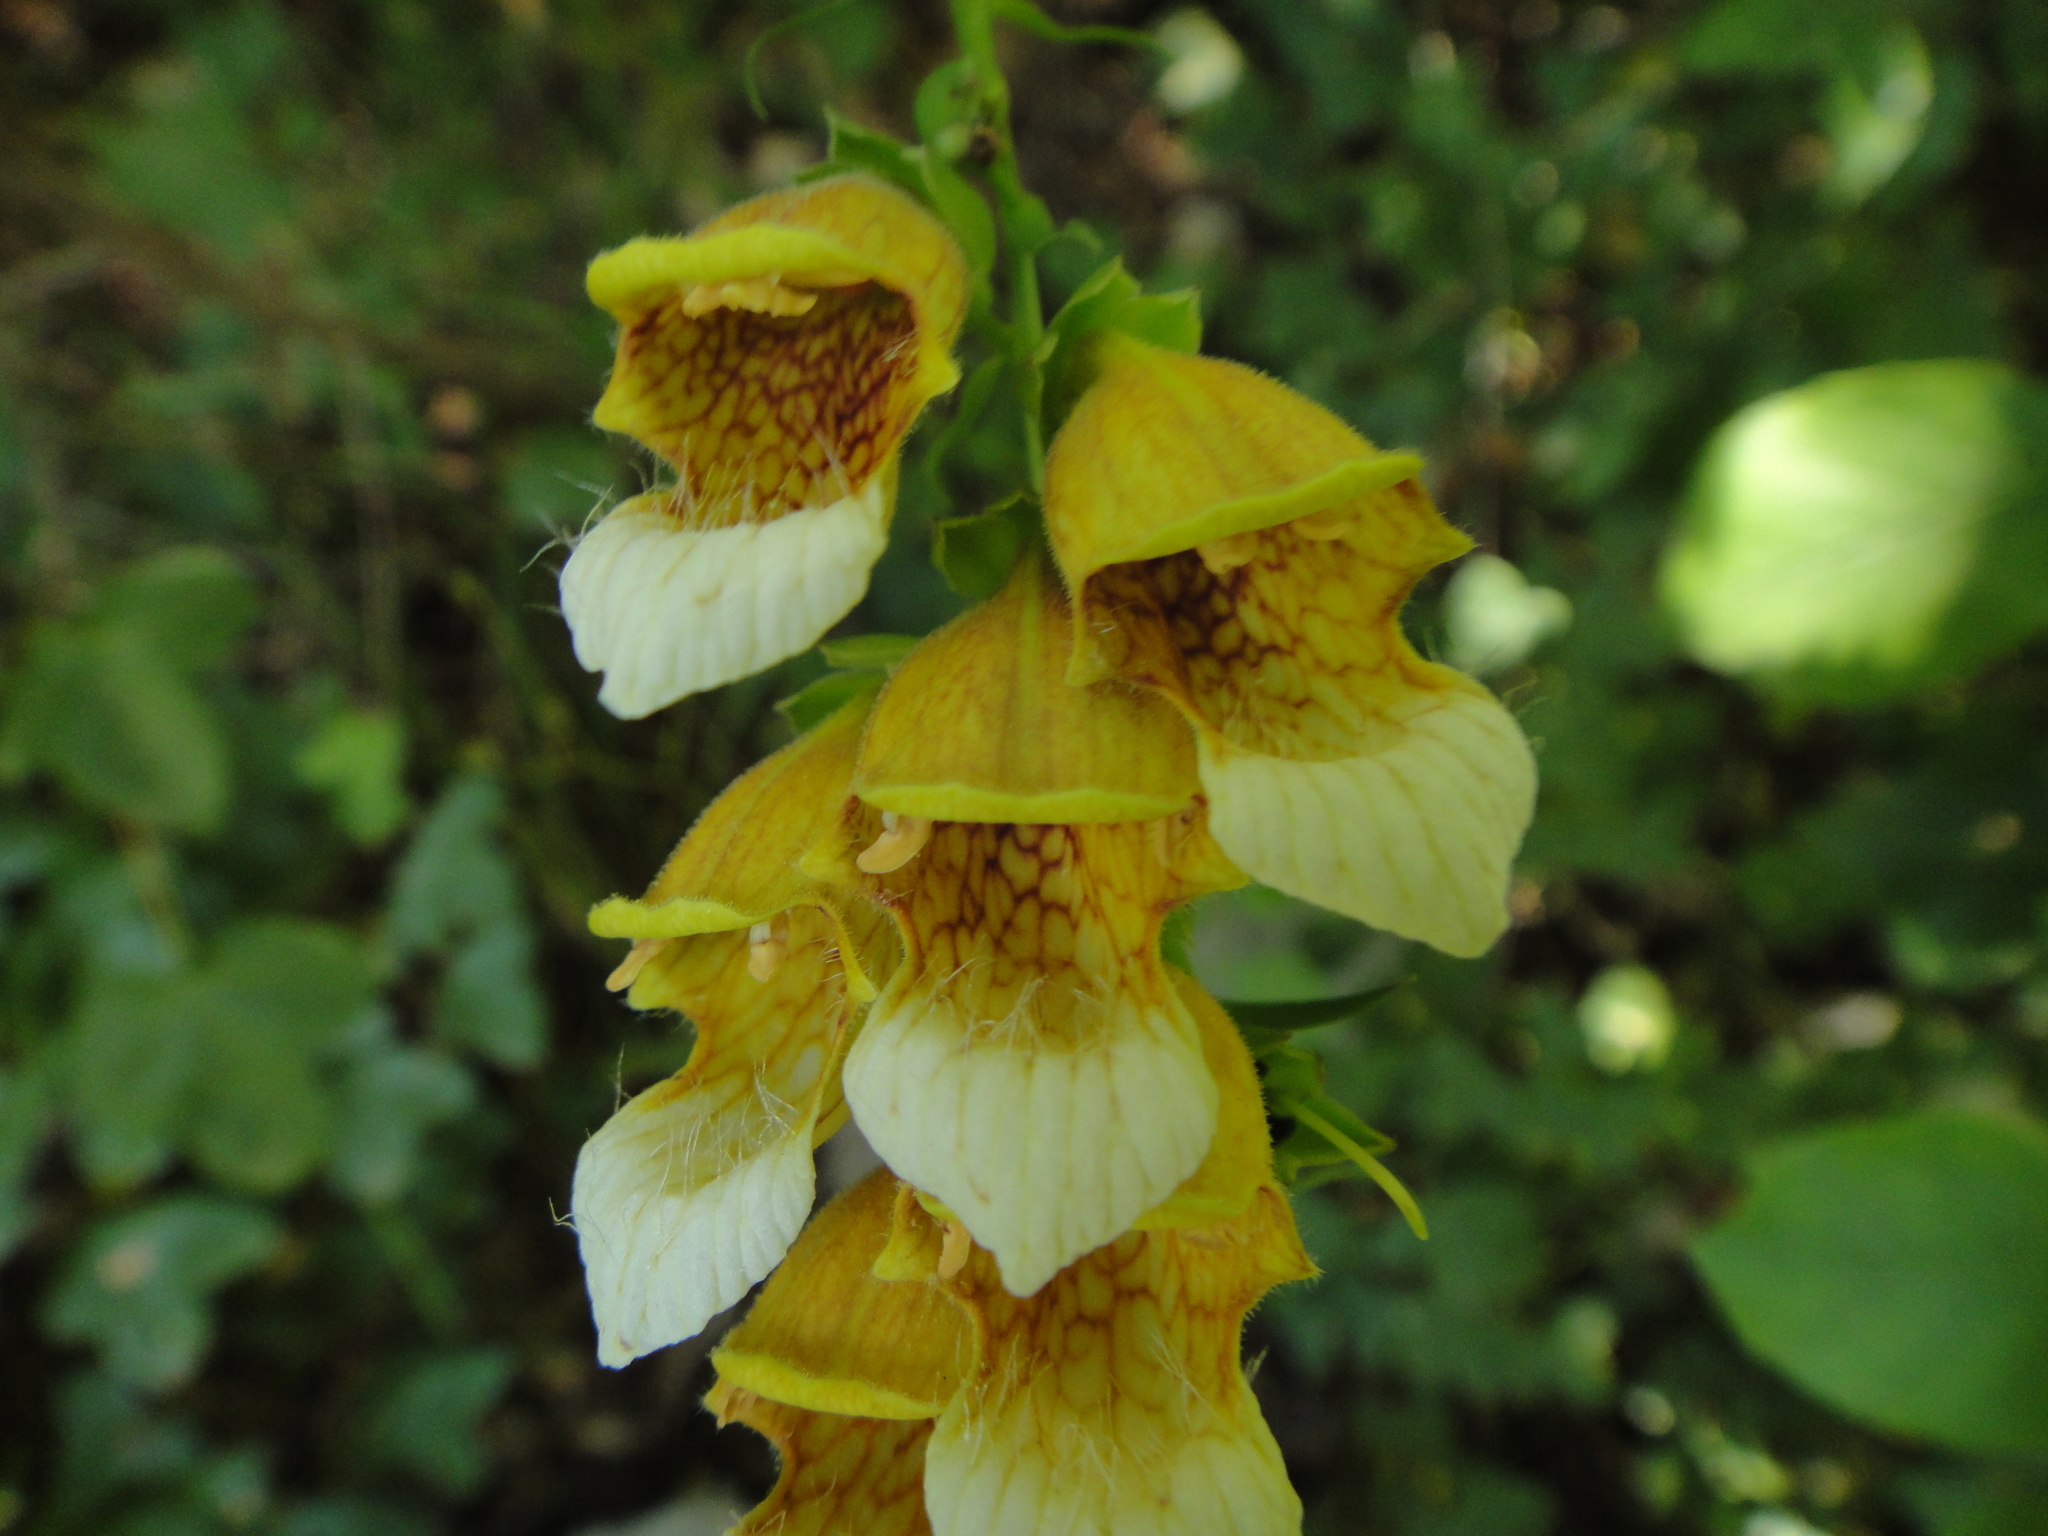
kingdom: Plantae
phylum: Tracheophyta
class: Magnoliopsida
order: Lamiales
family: Plantaginaceae
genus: Digitalis
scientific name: Digitalis laevigata
